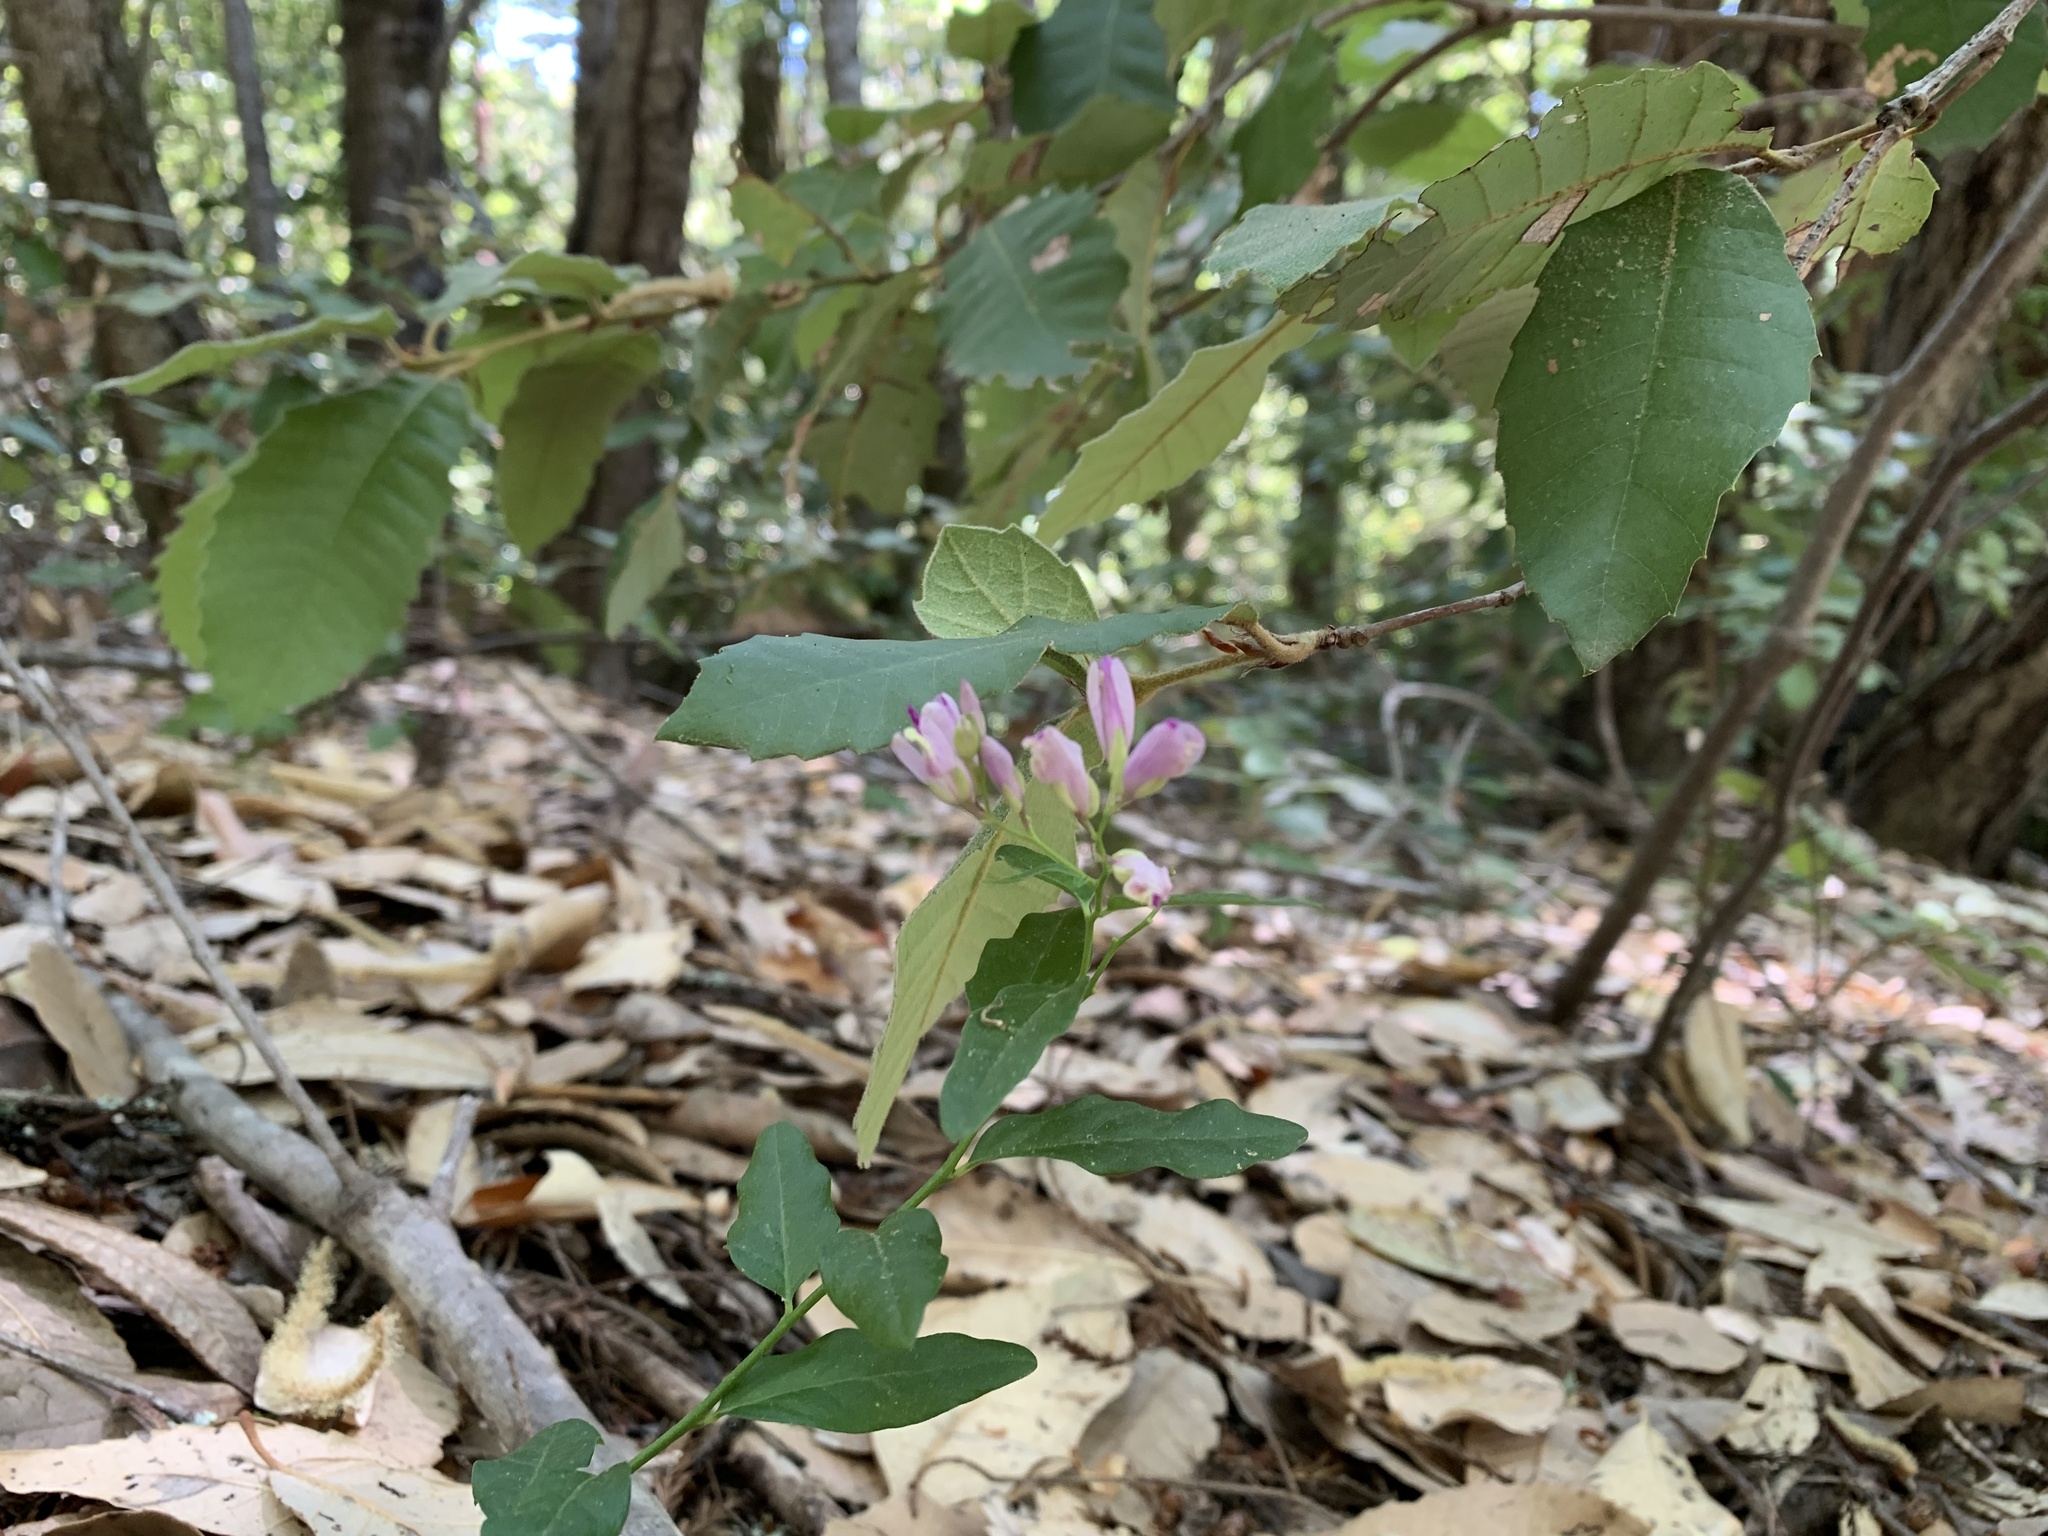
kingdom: Plantae
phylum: Tracheophyta
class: Magnoliopsida
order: Fabales
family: Polygalaceae
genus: Rhinotropis
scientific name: Rhinotropis californica
